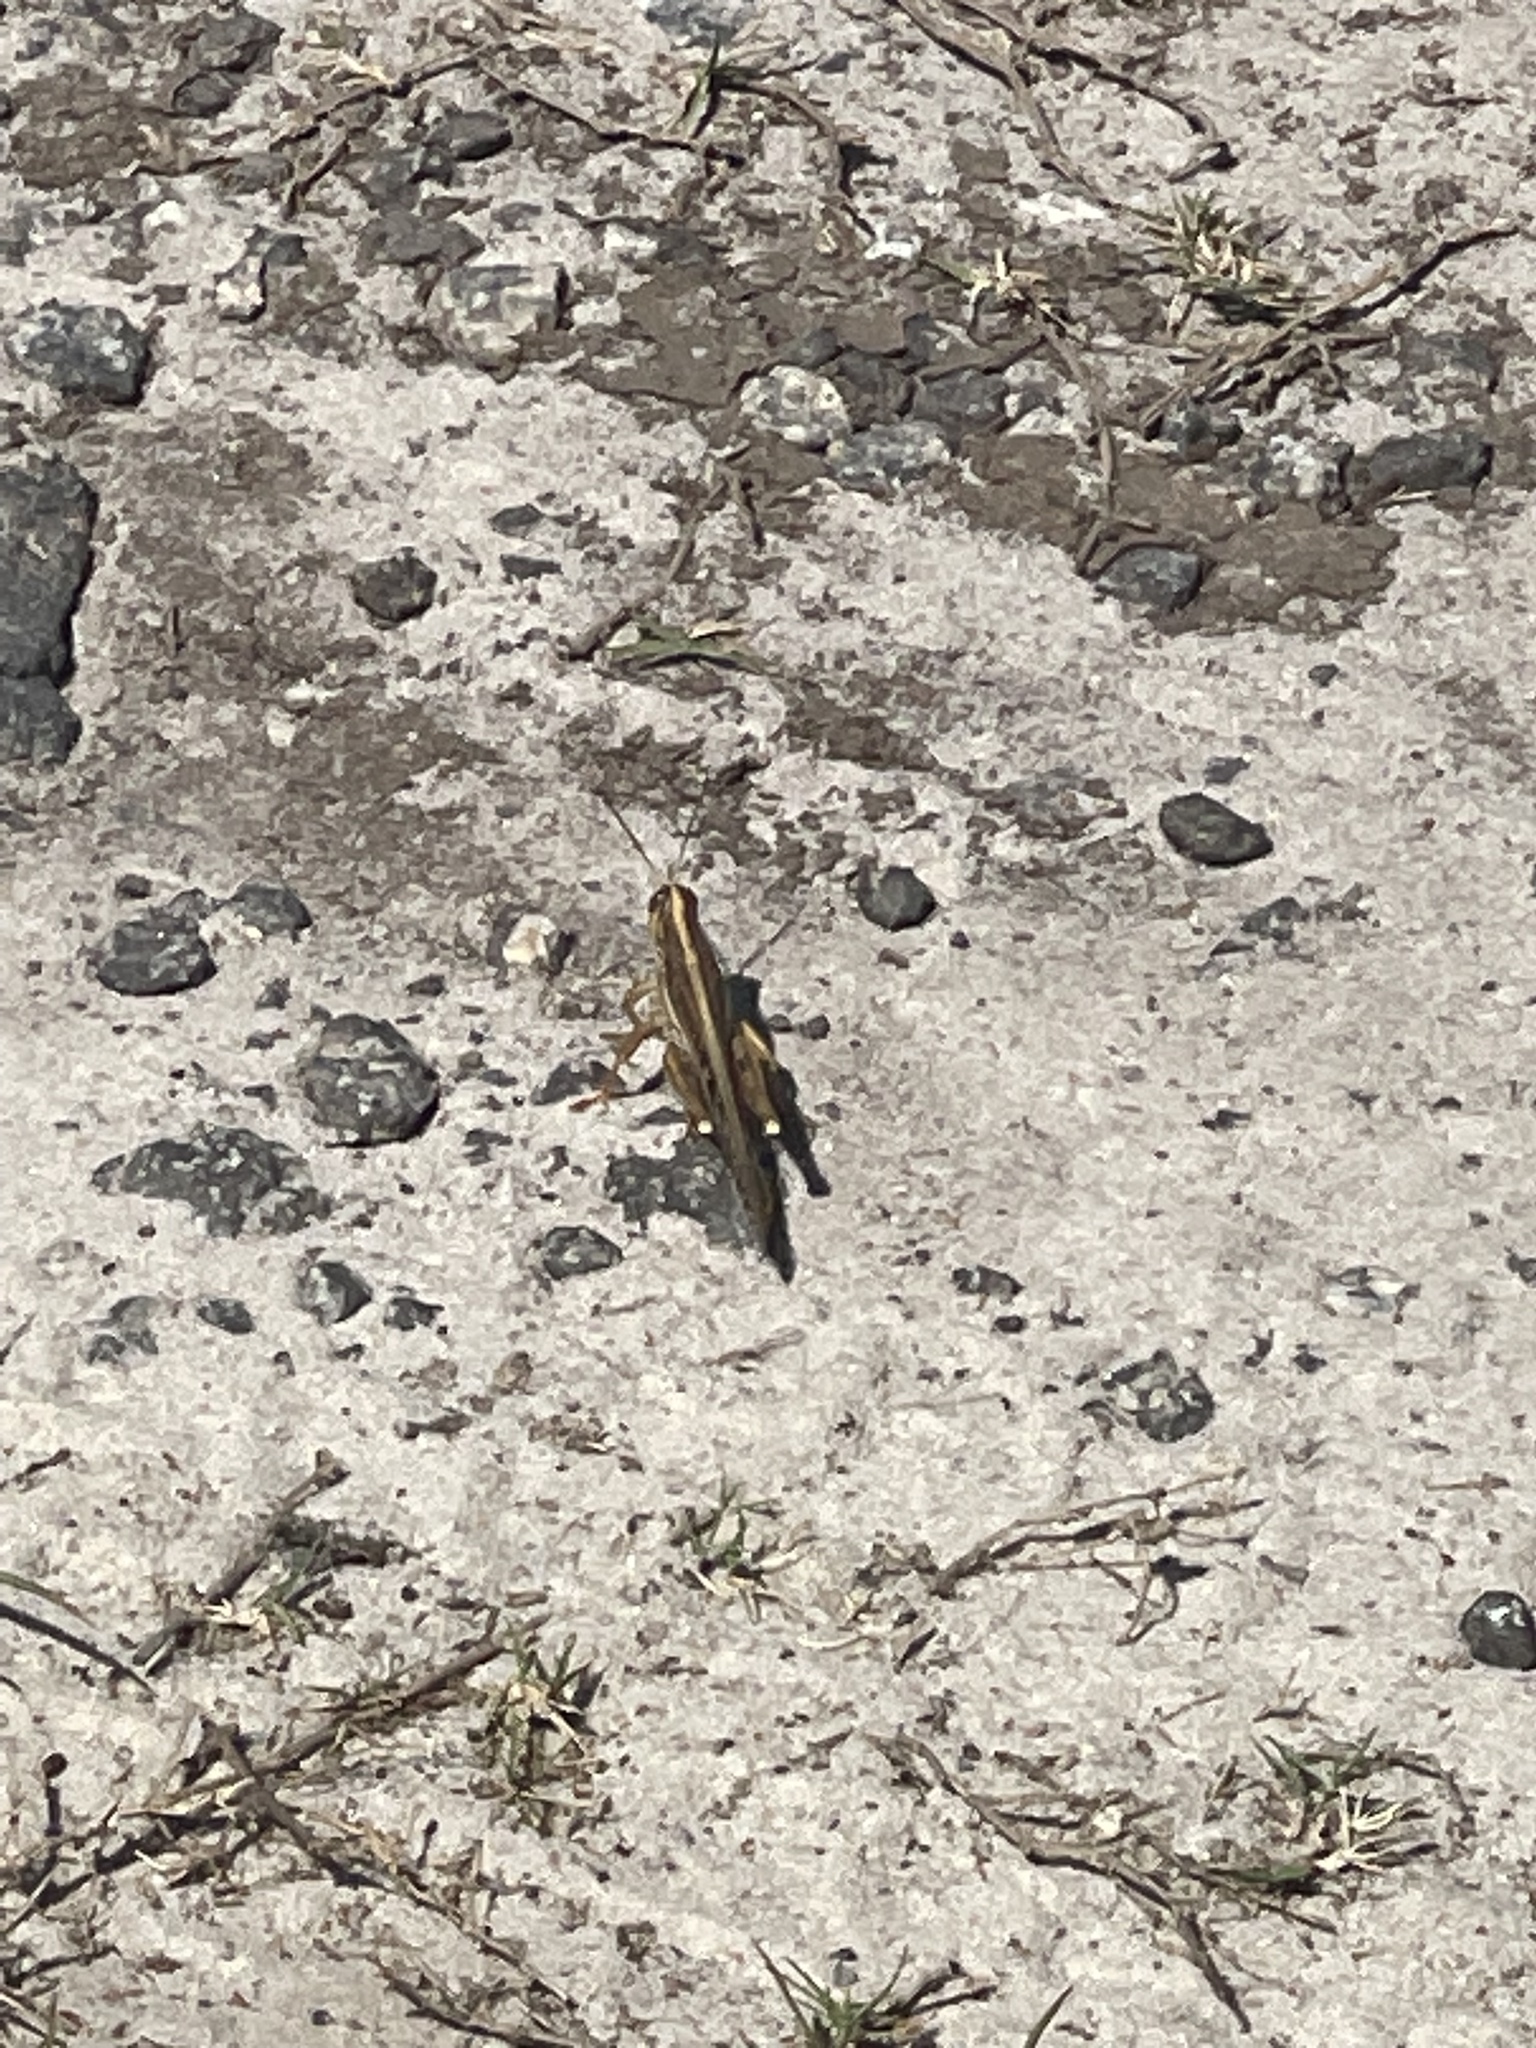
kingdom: Animalia
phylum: Arthropoda
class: Insecta
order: Orthoptera
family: Acrididae
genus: Schistocerca
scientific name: Schistocerca americana
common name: American bird locust
